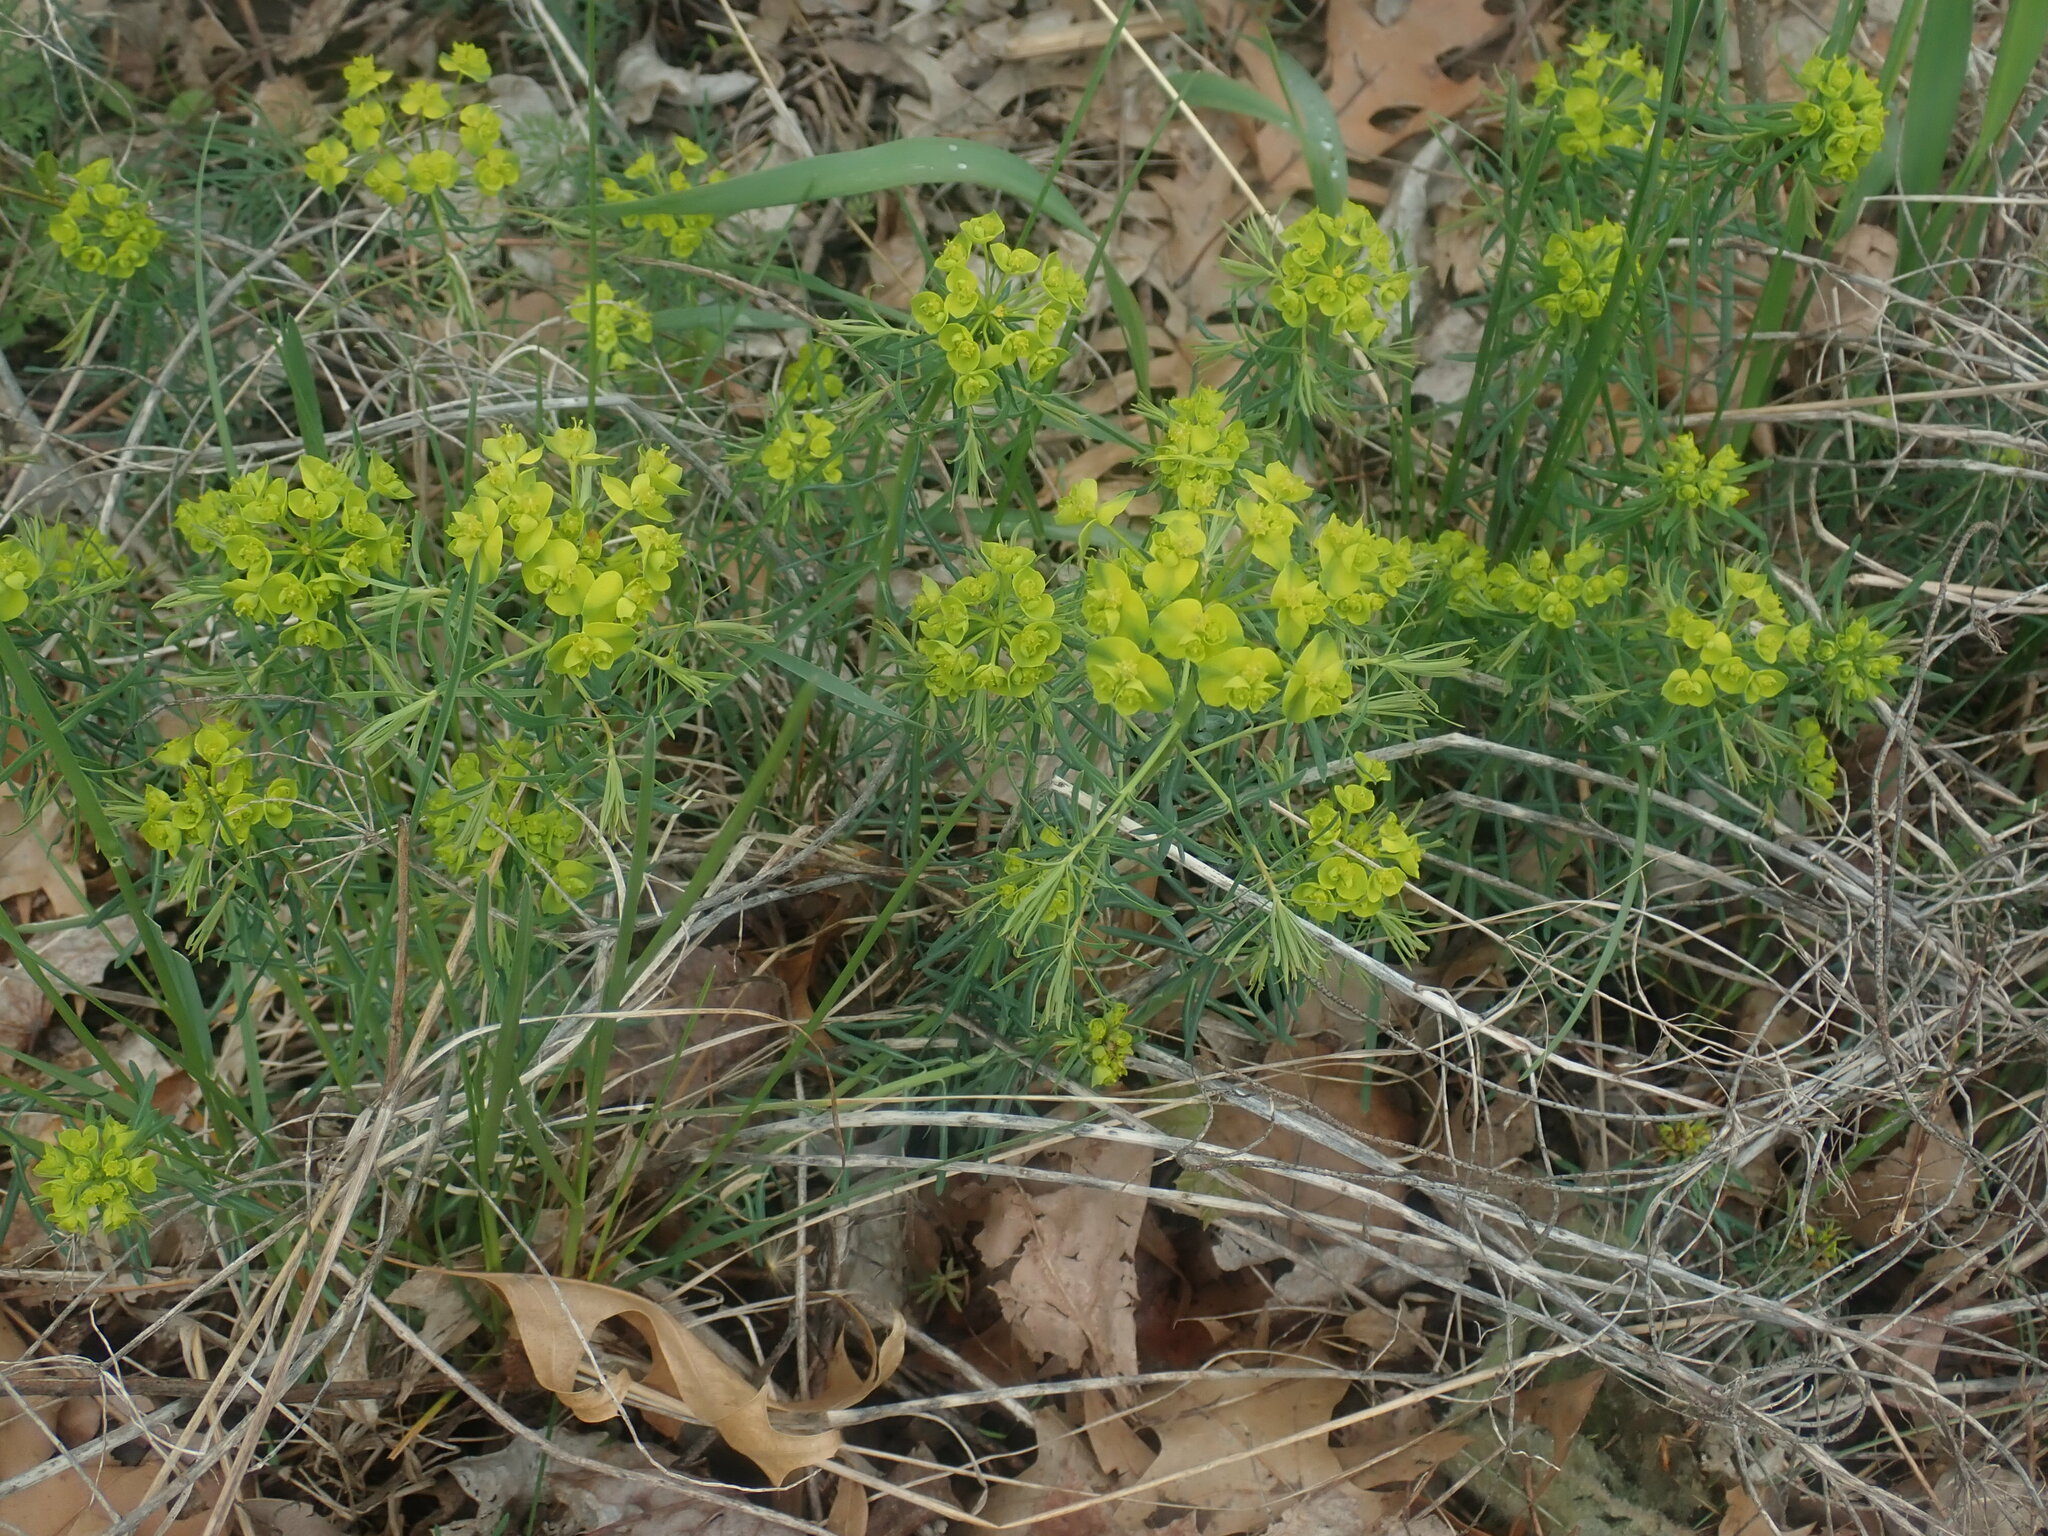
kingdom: Plantae
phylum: Tracheophyta
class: Magnoliopsida
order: Malpighiales
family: Euphorbiaceae
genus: Euphorbia
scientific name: Euphorbia cyparissias
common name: Cypress spurge
